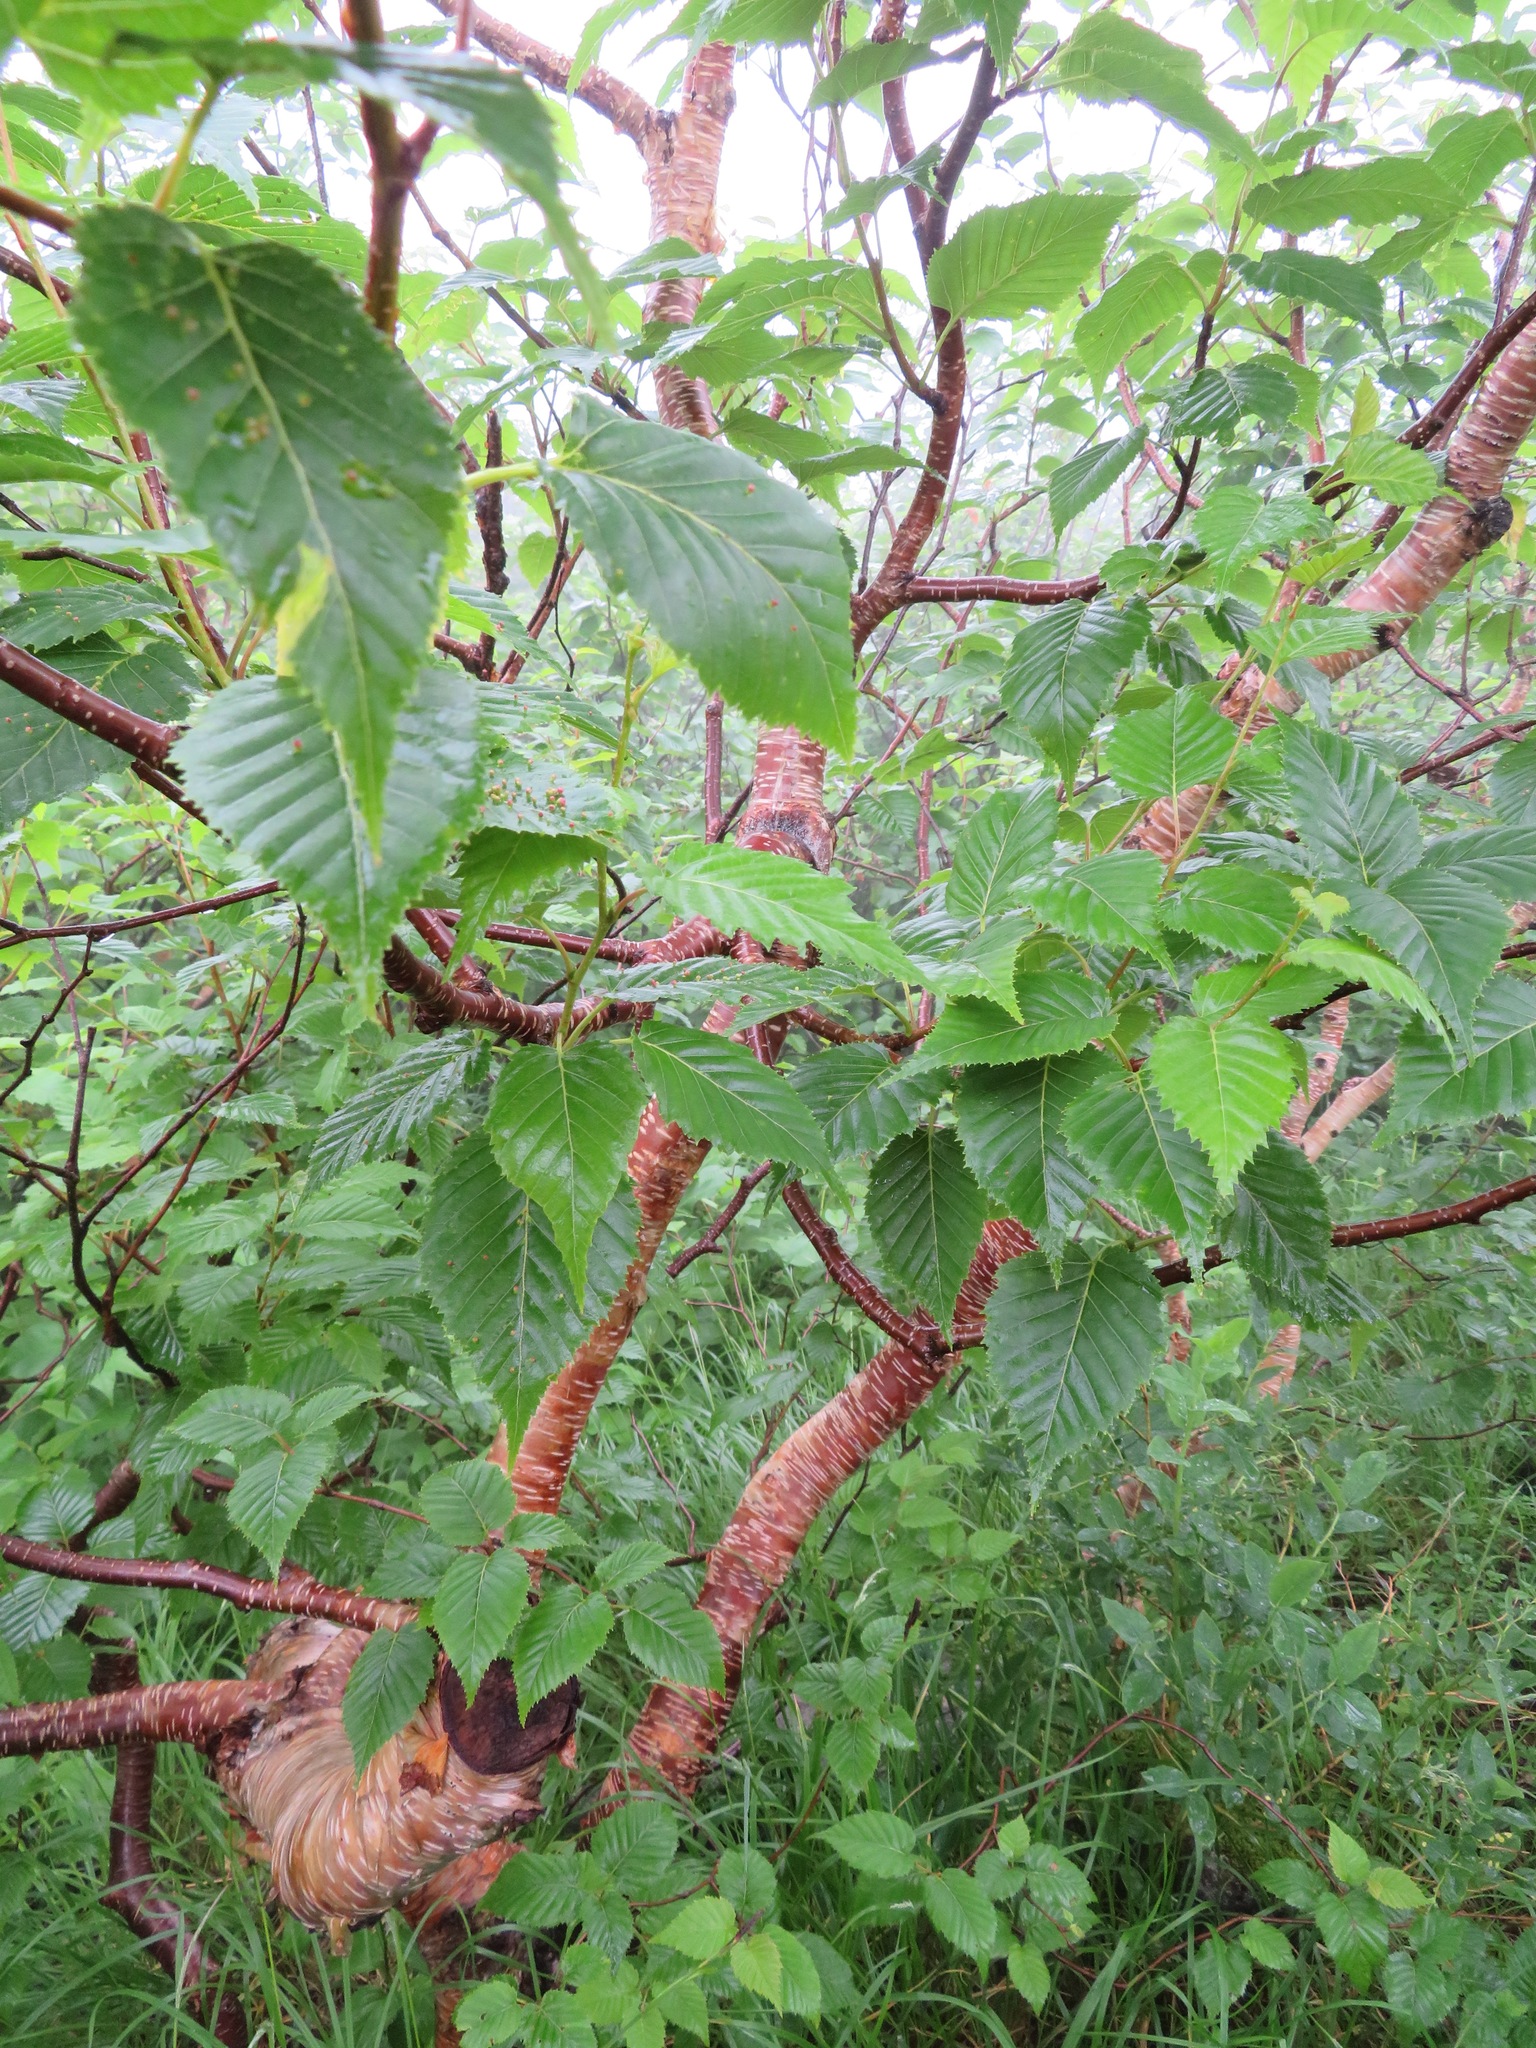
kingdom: Plantae
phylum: Tracheophyta
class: Magnoliopsida
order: Fagales
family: Betulaceae
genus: Betula
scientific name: Betula ermanii
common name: Erman's birch
